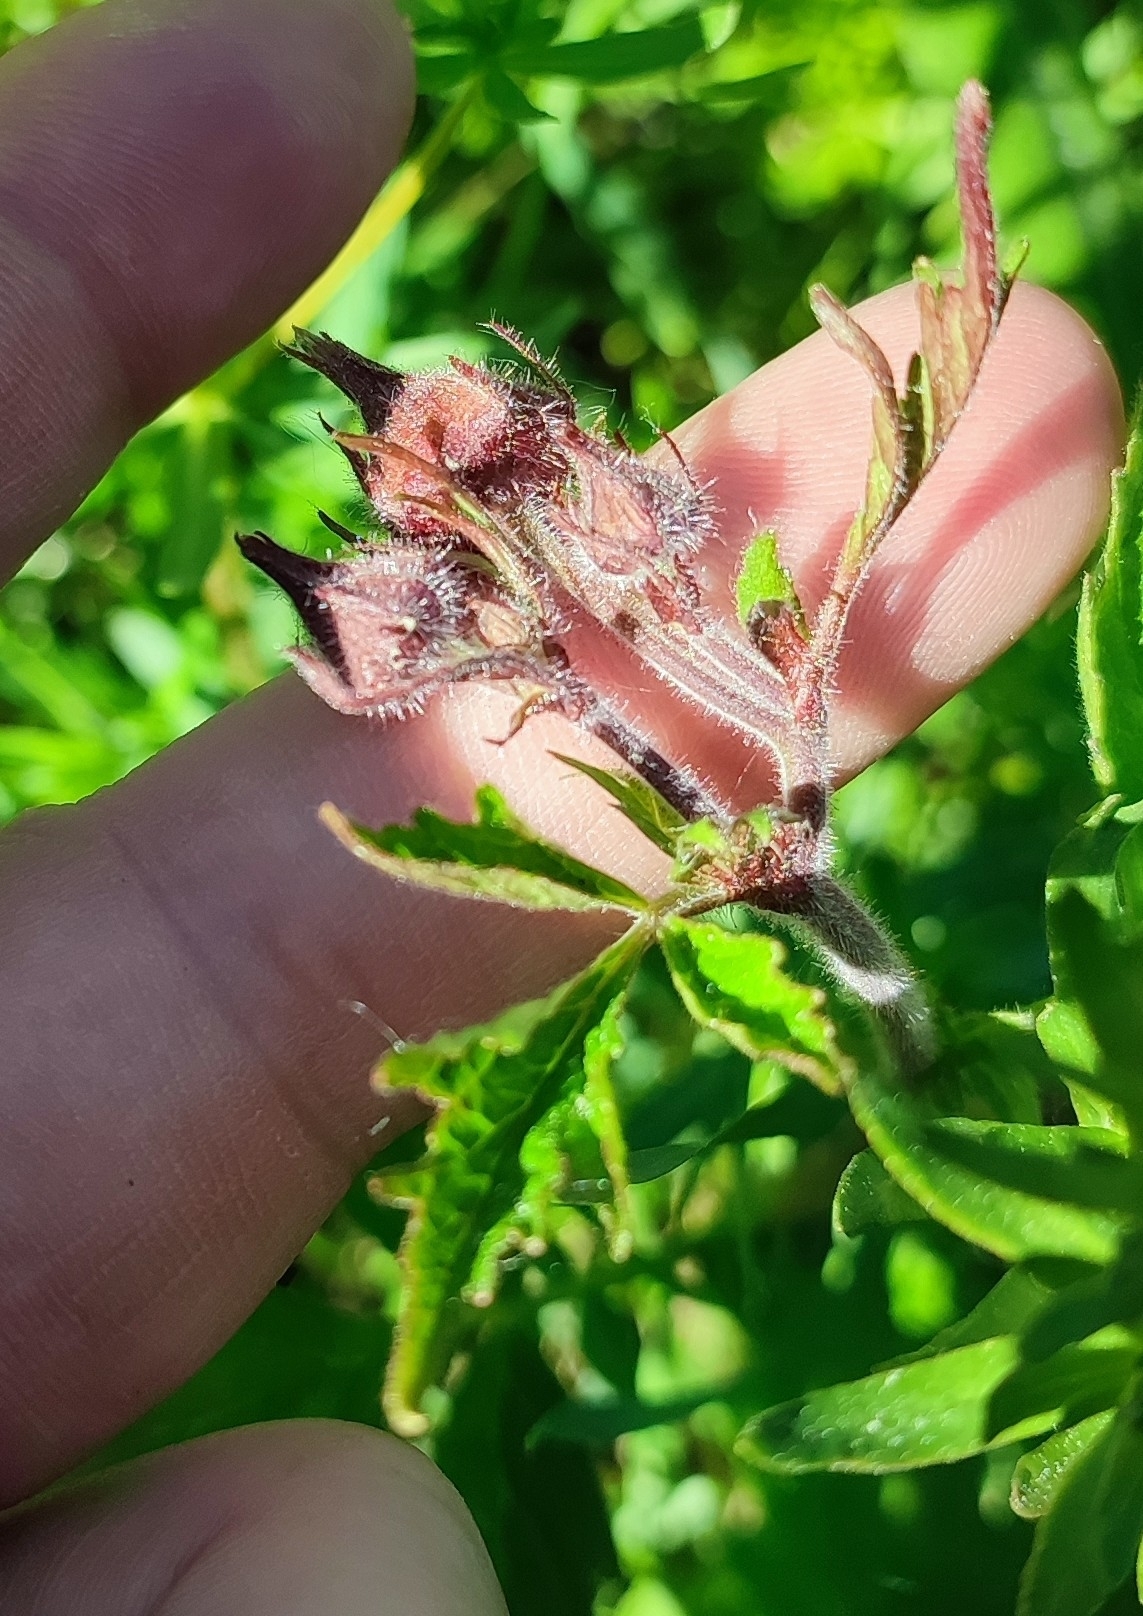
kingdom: Plantae
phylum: Tracheophyta
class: Magnoliopsida
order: Rosales
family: Rosaceae
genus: Geum
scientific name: Geum rivale
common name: Water avens
